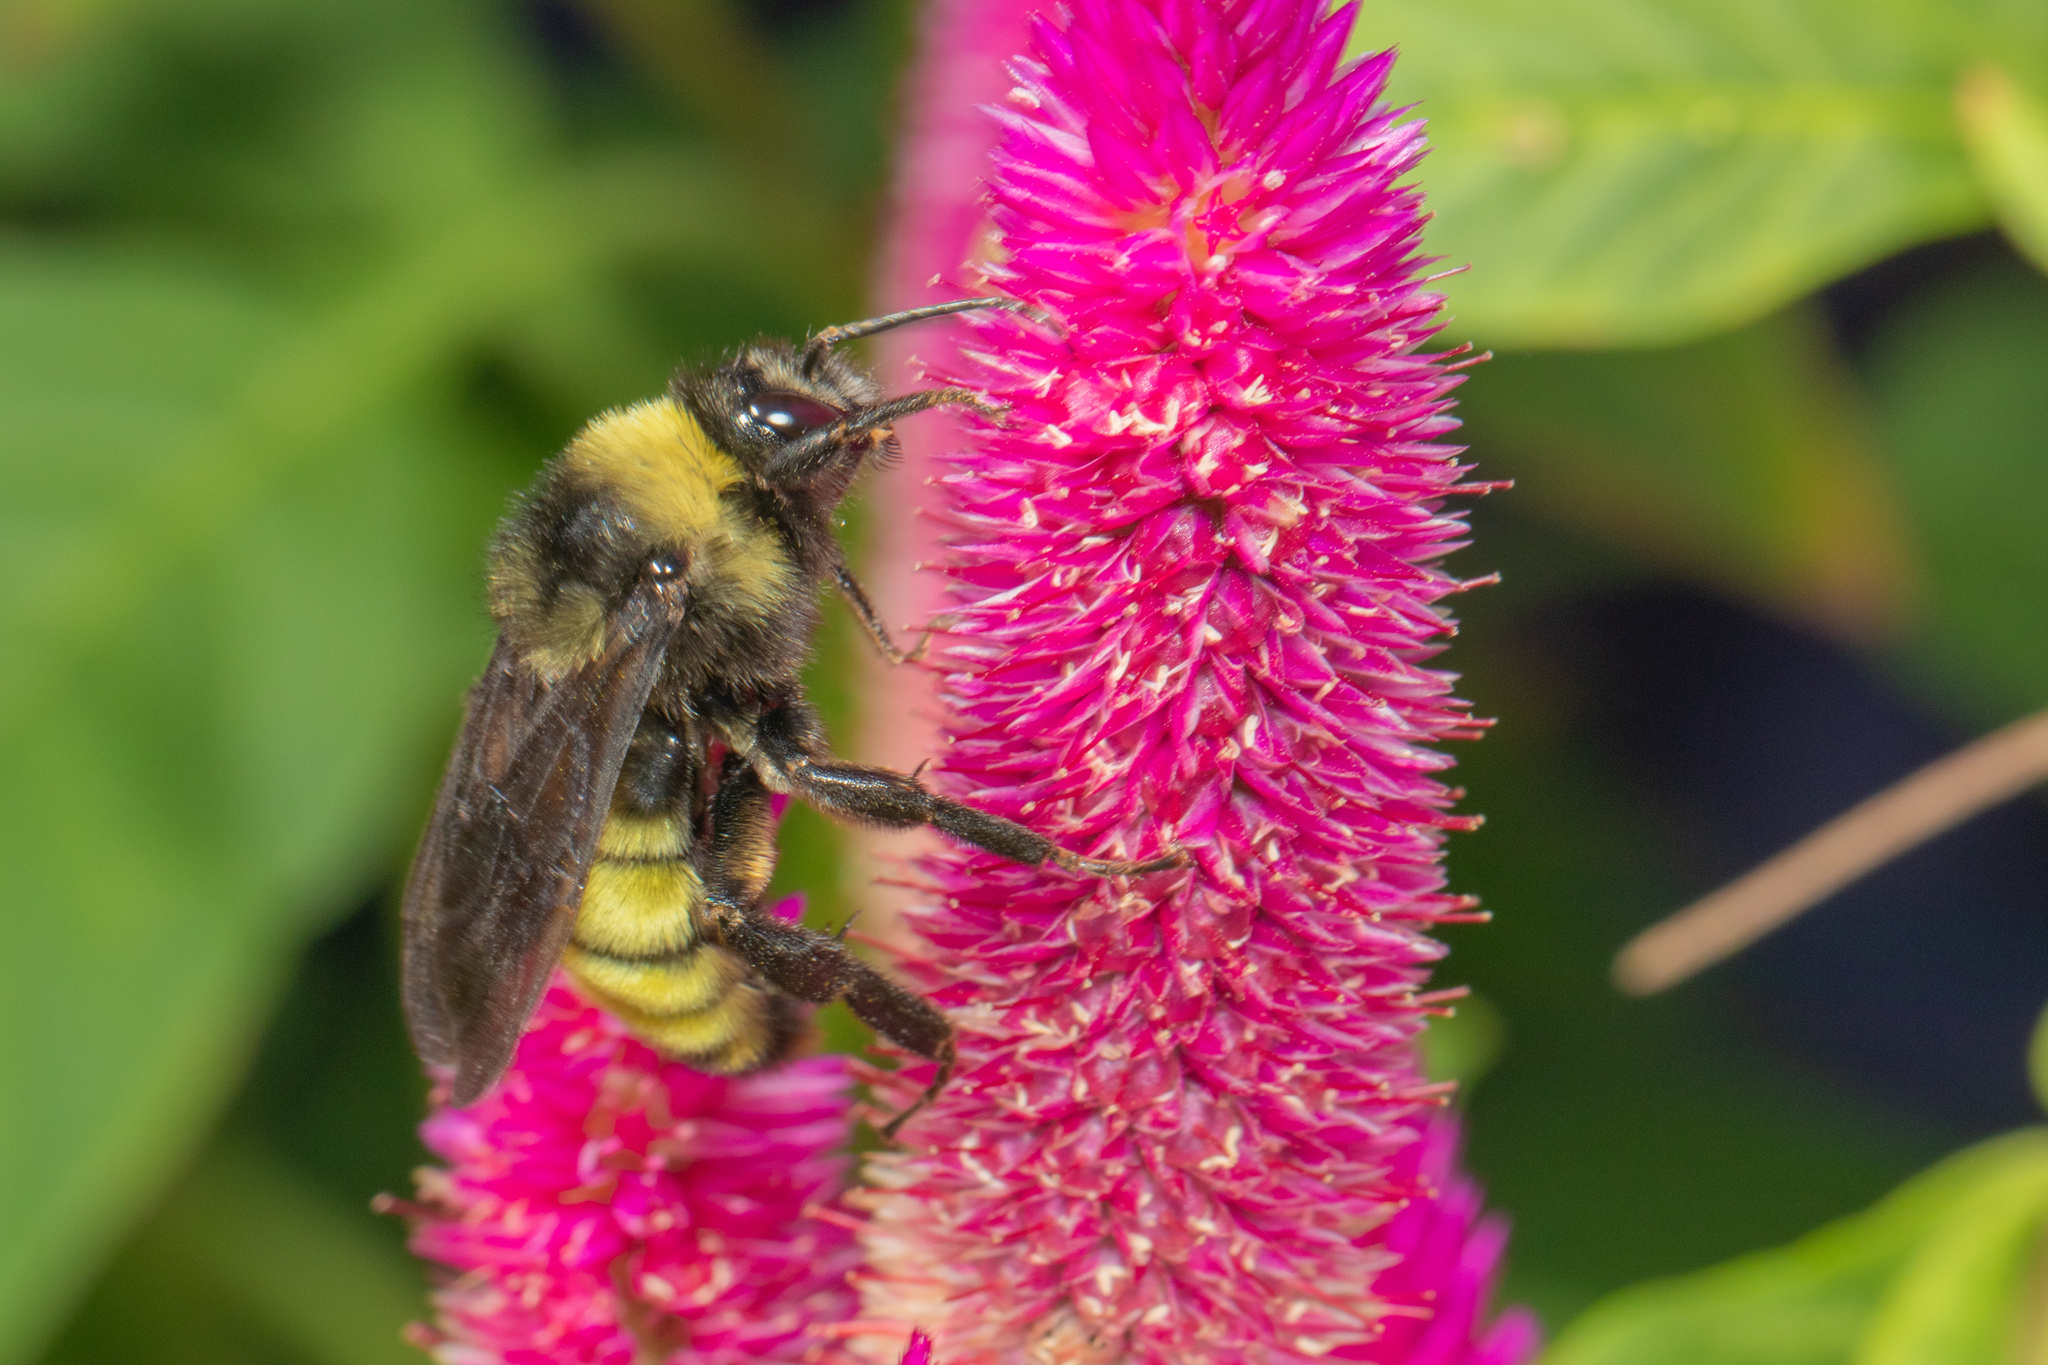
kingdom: Animalia
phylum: Arthropoda
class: Insecta
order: Hymenoptera
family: Apidae
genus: Bombus
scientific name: Bombus pensylvanicus
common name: Bumble bee
